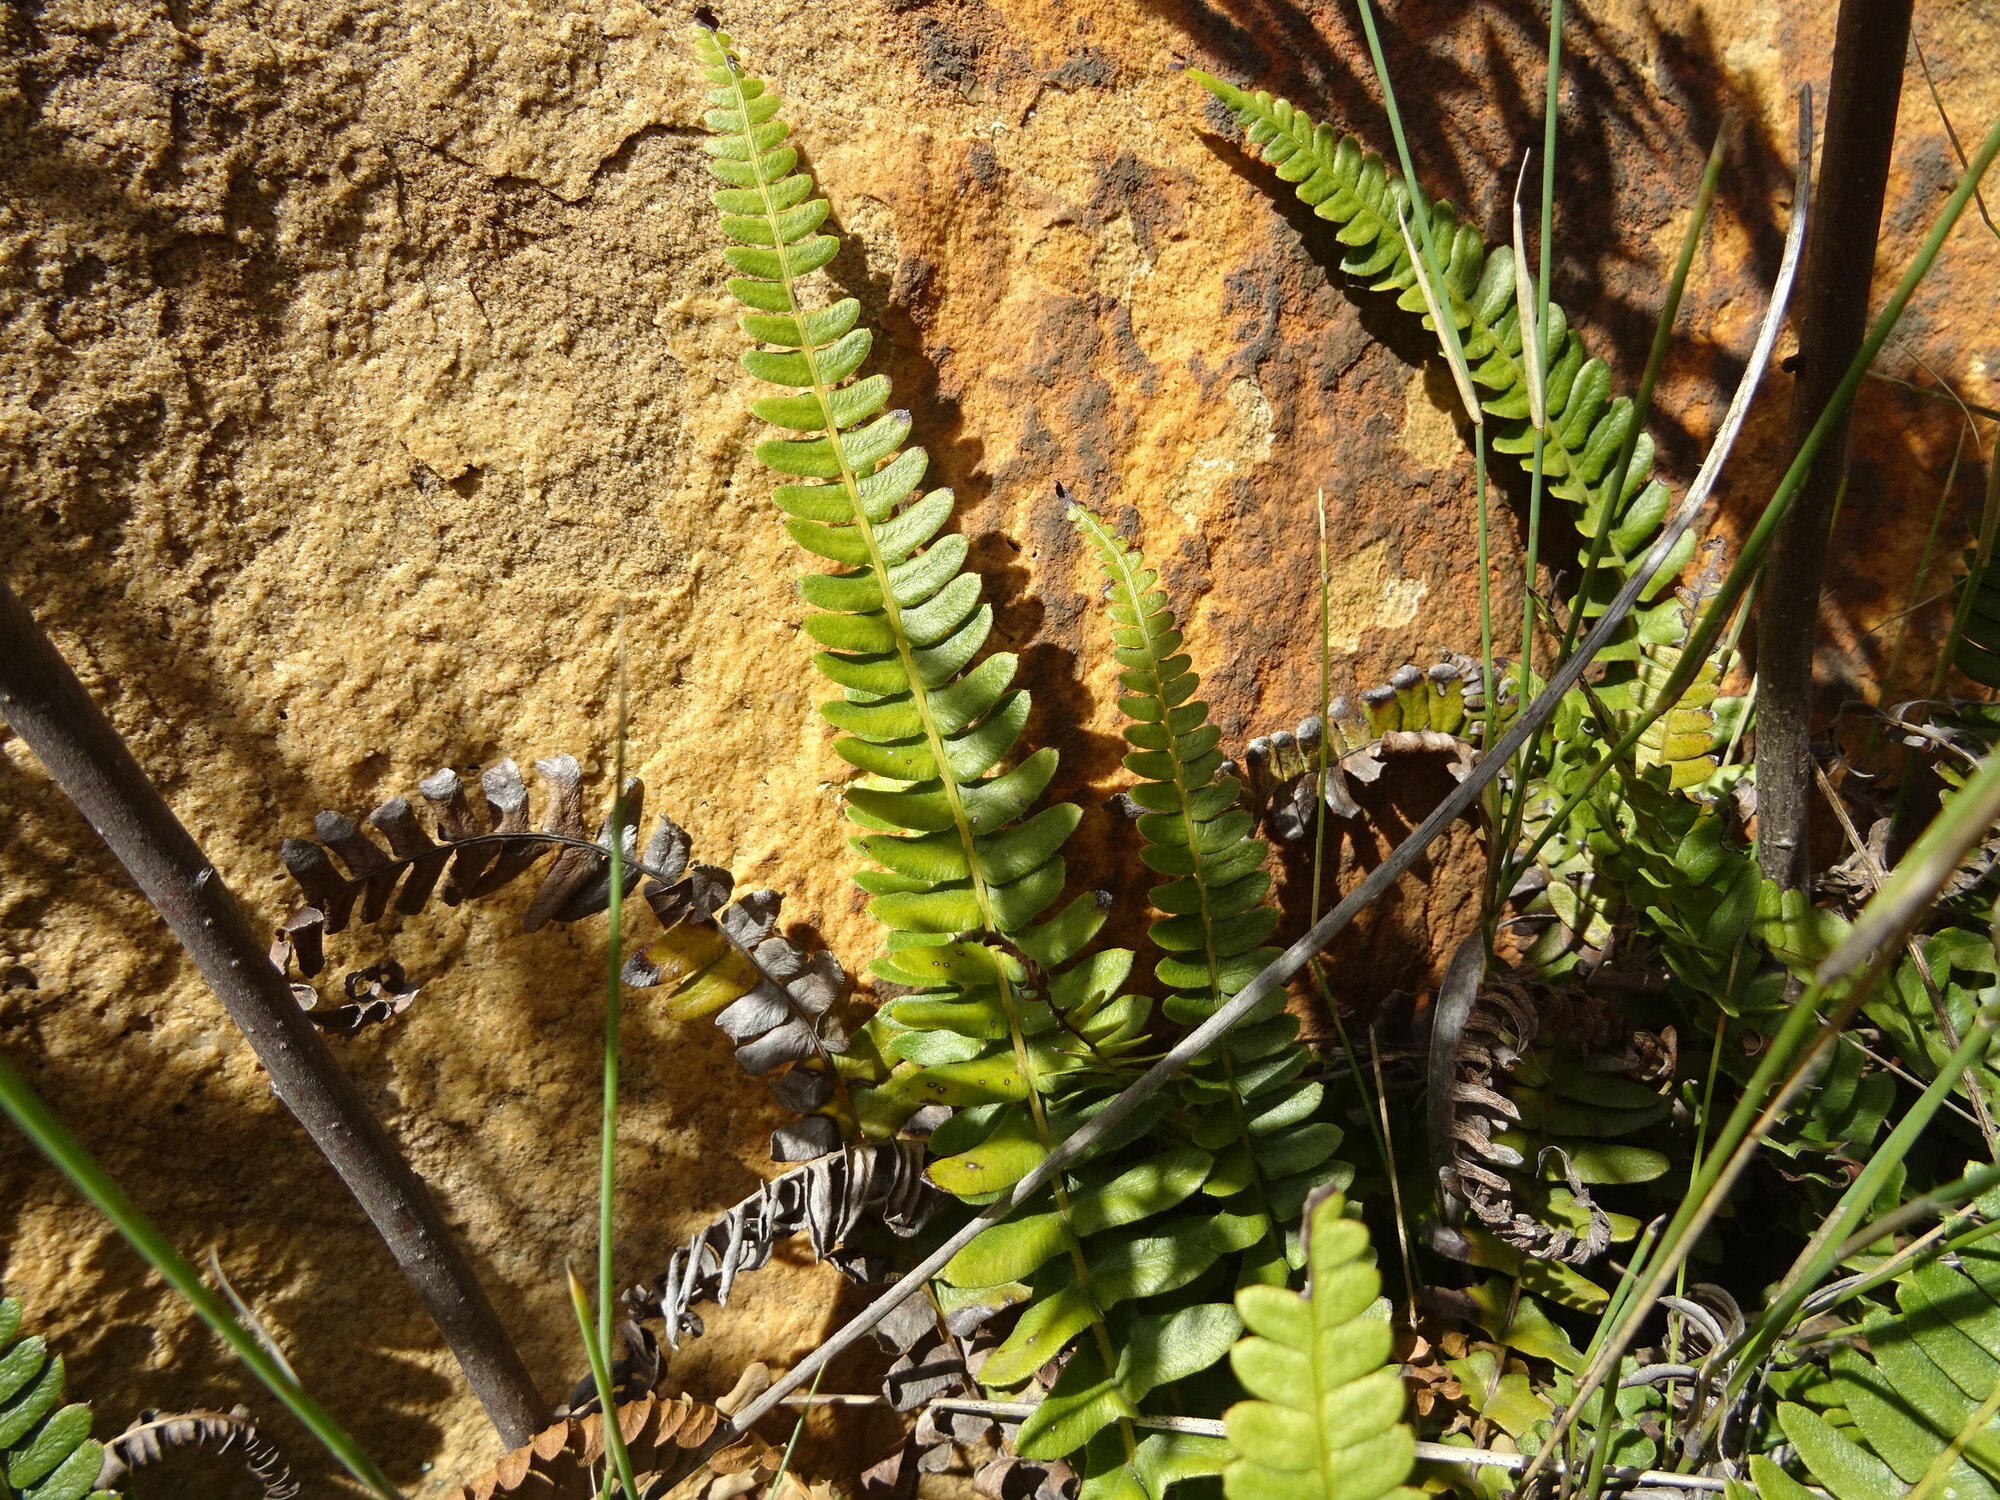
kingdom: Plantae
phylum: Tracheophyta
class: Polypodiopsida
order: Polypodiales
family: Blechnaceae
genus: Blechnum
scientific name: Blechnum australe
